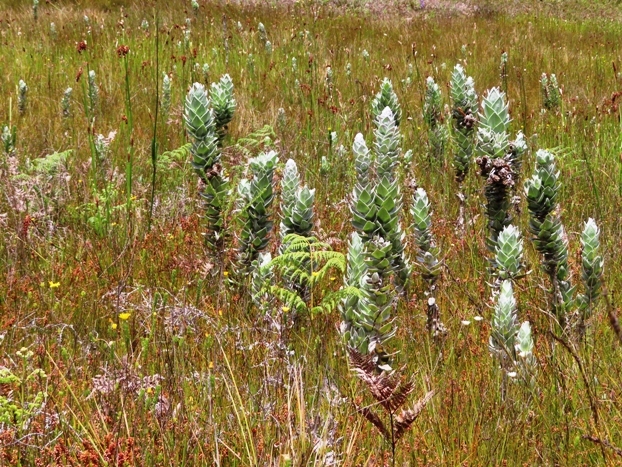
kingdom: Plantae
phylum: Tracheophyta
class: Magnoliopsida
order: Asterales
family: Asteraceae
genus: Syncarpha
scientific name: Syncarpha eximia
